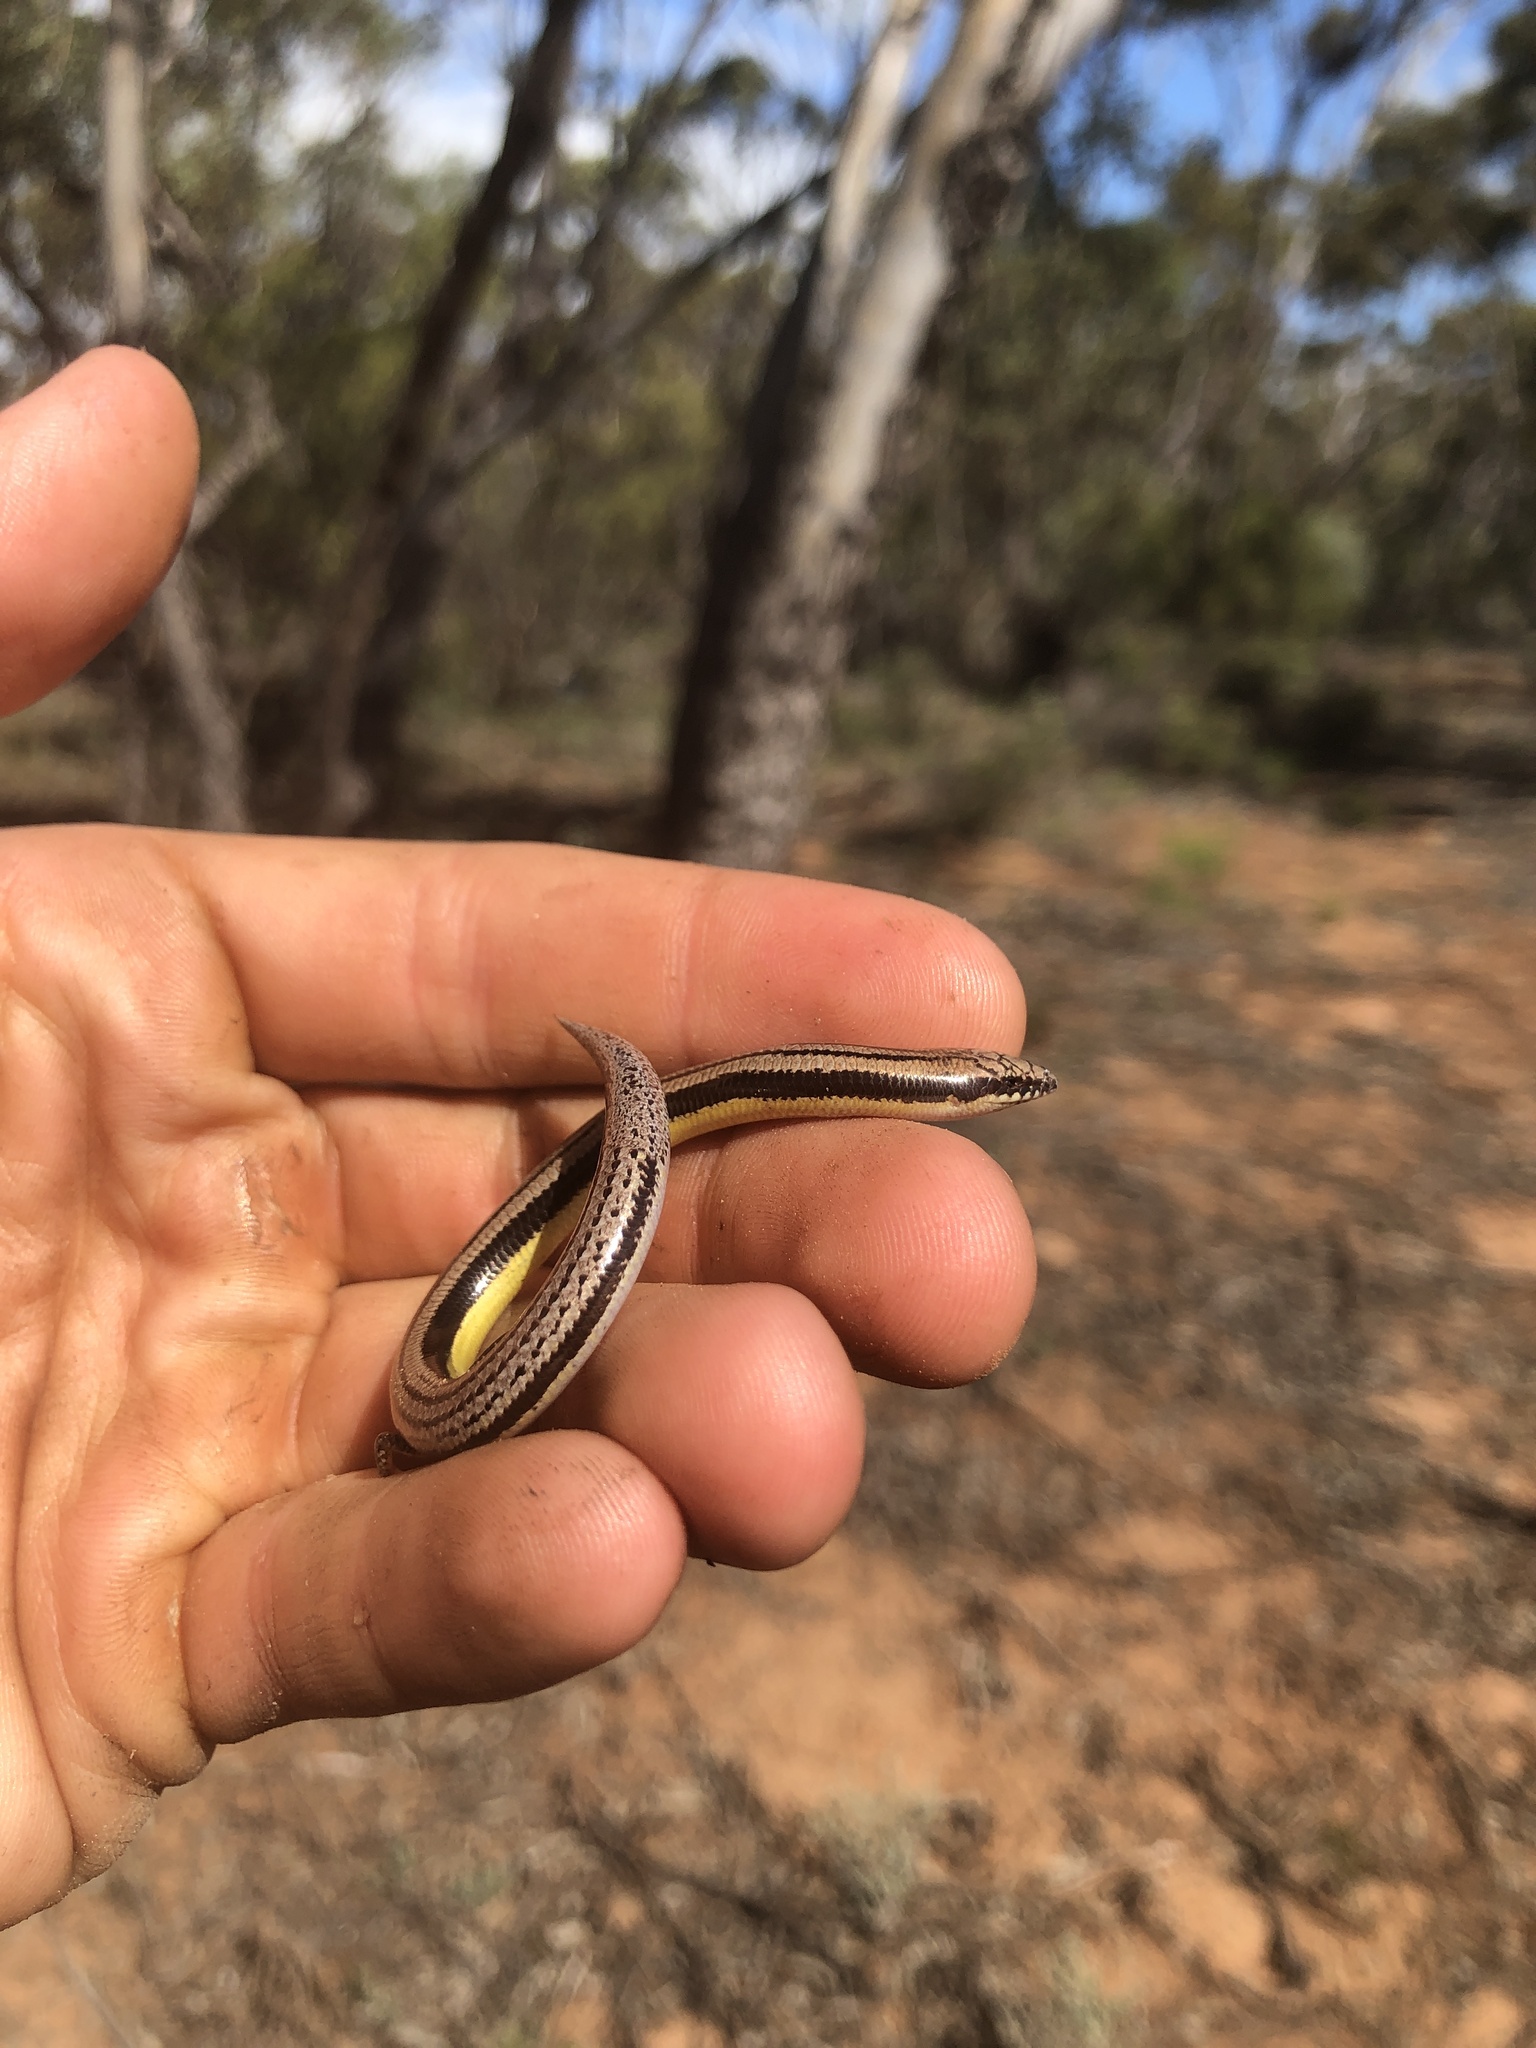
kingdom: Animalia
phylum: Chordata
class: Squamata
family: Scincidae
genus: Lerista
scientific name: Lerista edwardsae
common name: Myall slider
